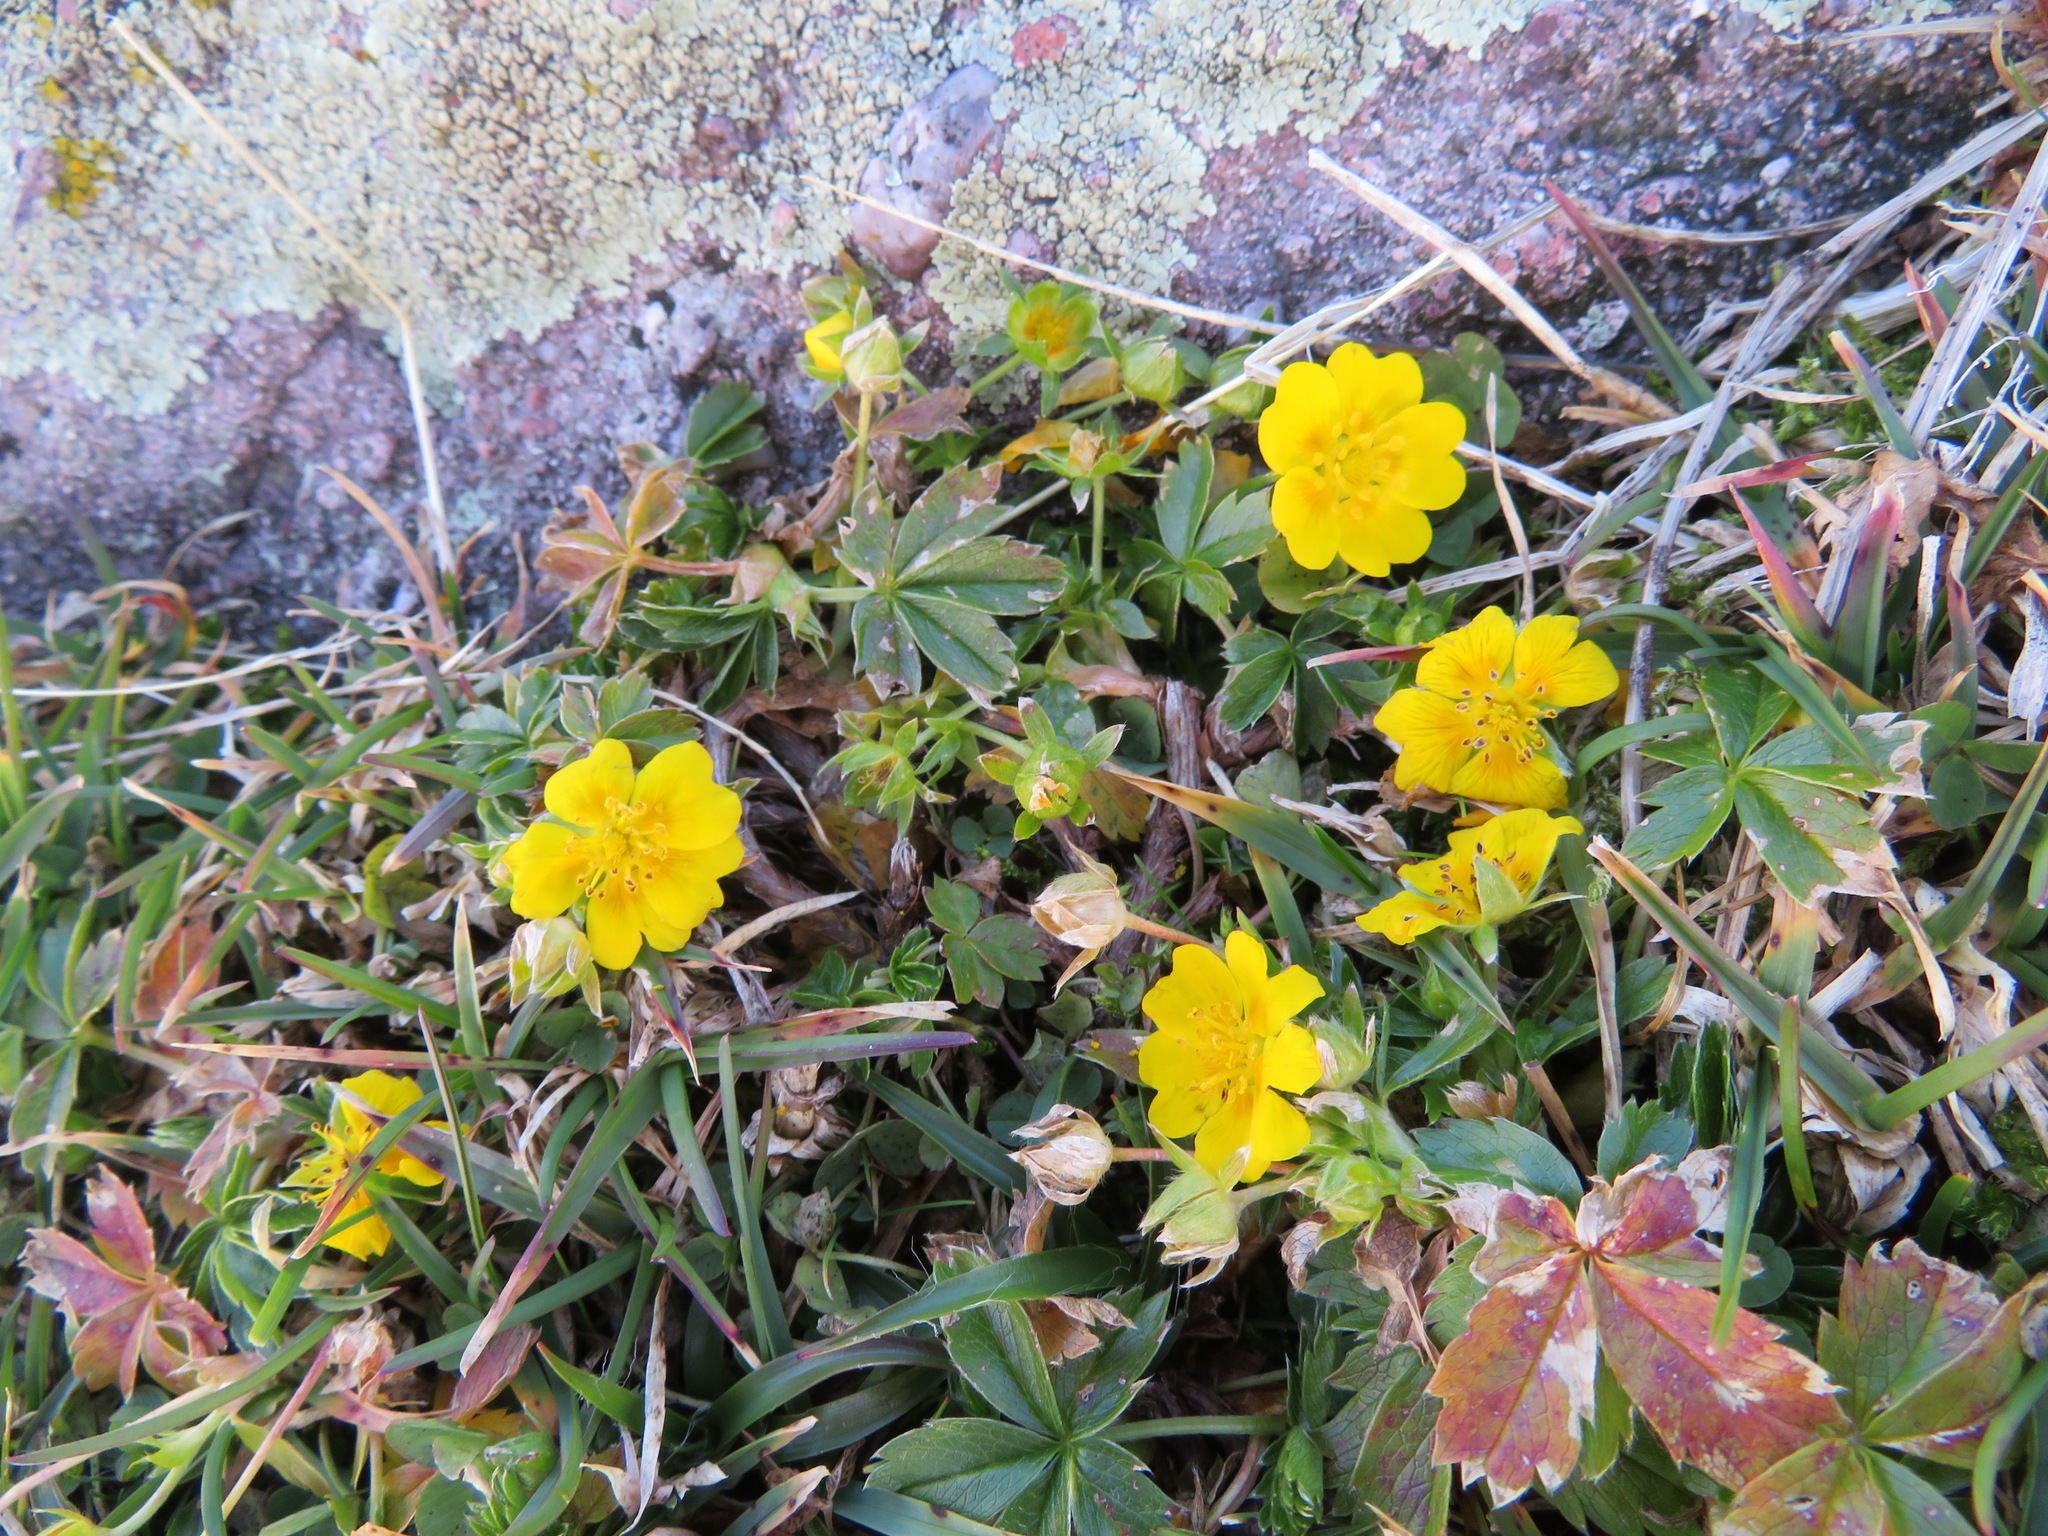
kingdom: Plantae
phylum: Tracheophyta
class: Magnoliopsida
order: Rosales
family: Rosaceae
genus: Potentilla
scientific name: Potentilla aurea
